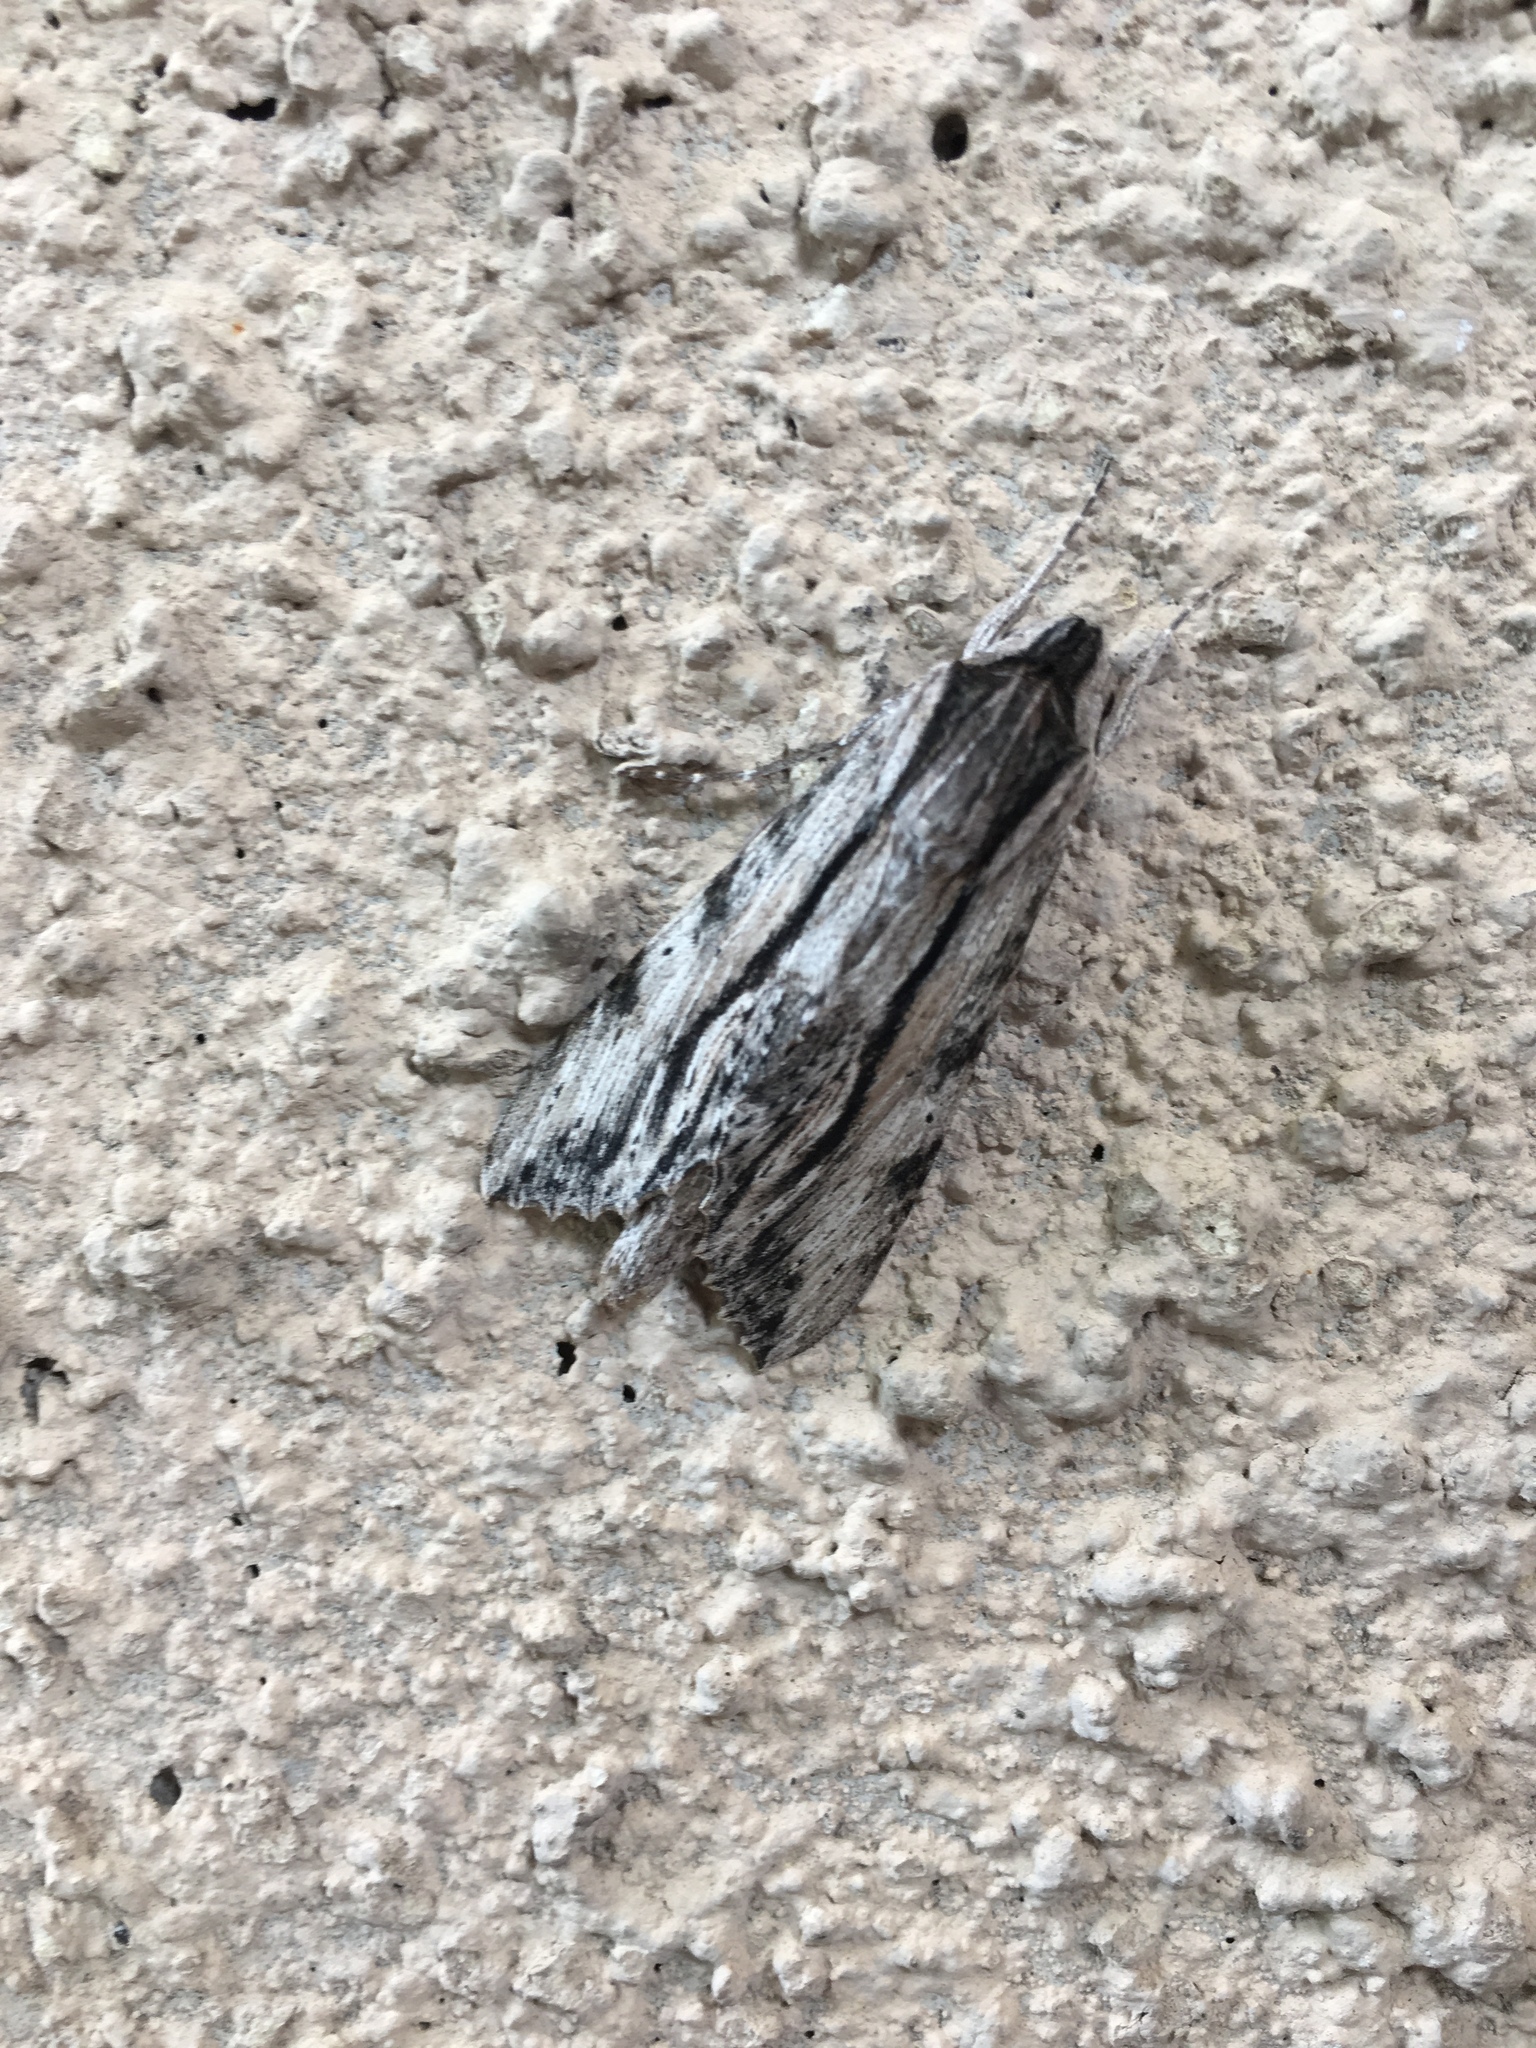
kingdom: Animalia
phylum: Arthropoda
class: Insecta
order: Lepidoptera
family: Sphingidae
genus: Erinnyis
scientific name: Erinnyis obscura
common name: Obscure sphinx
